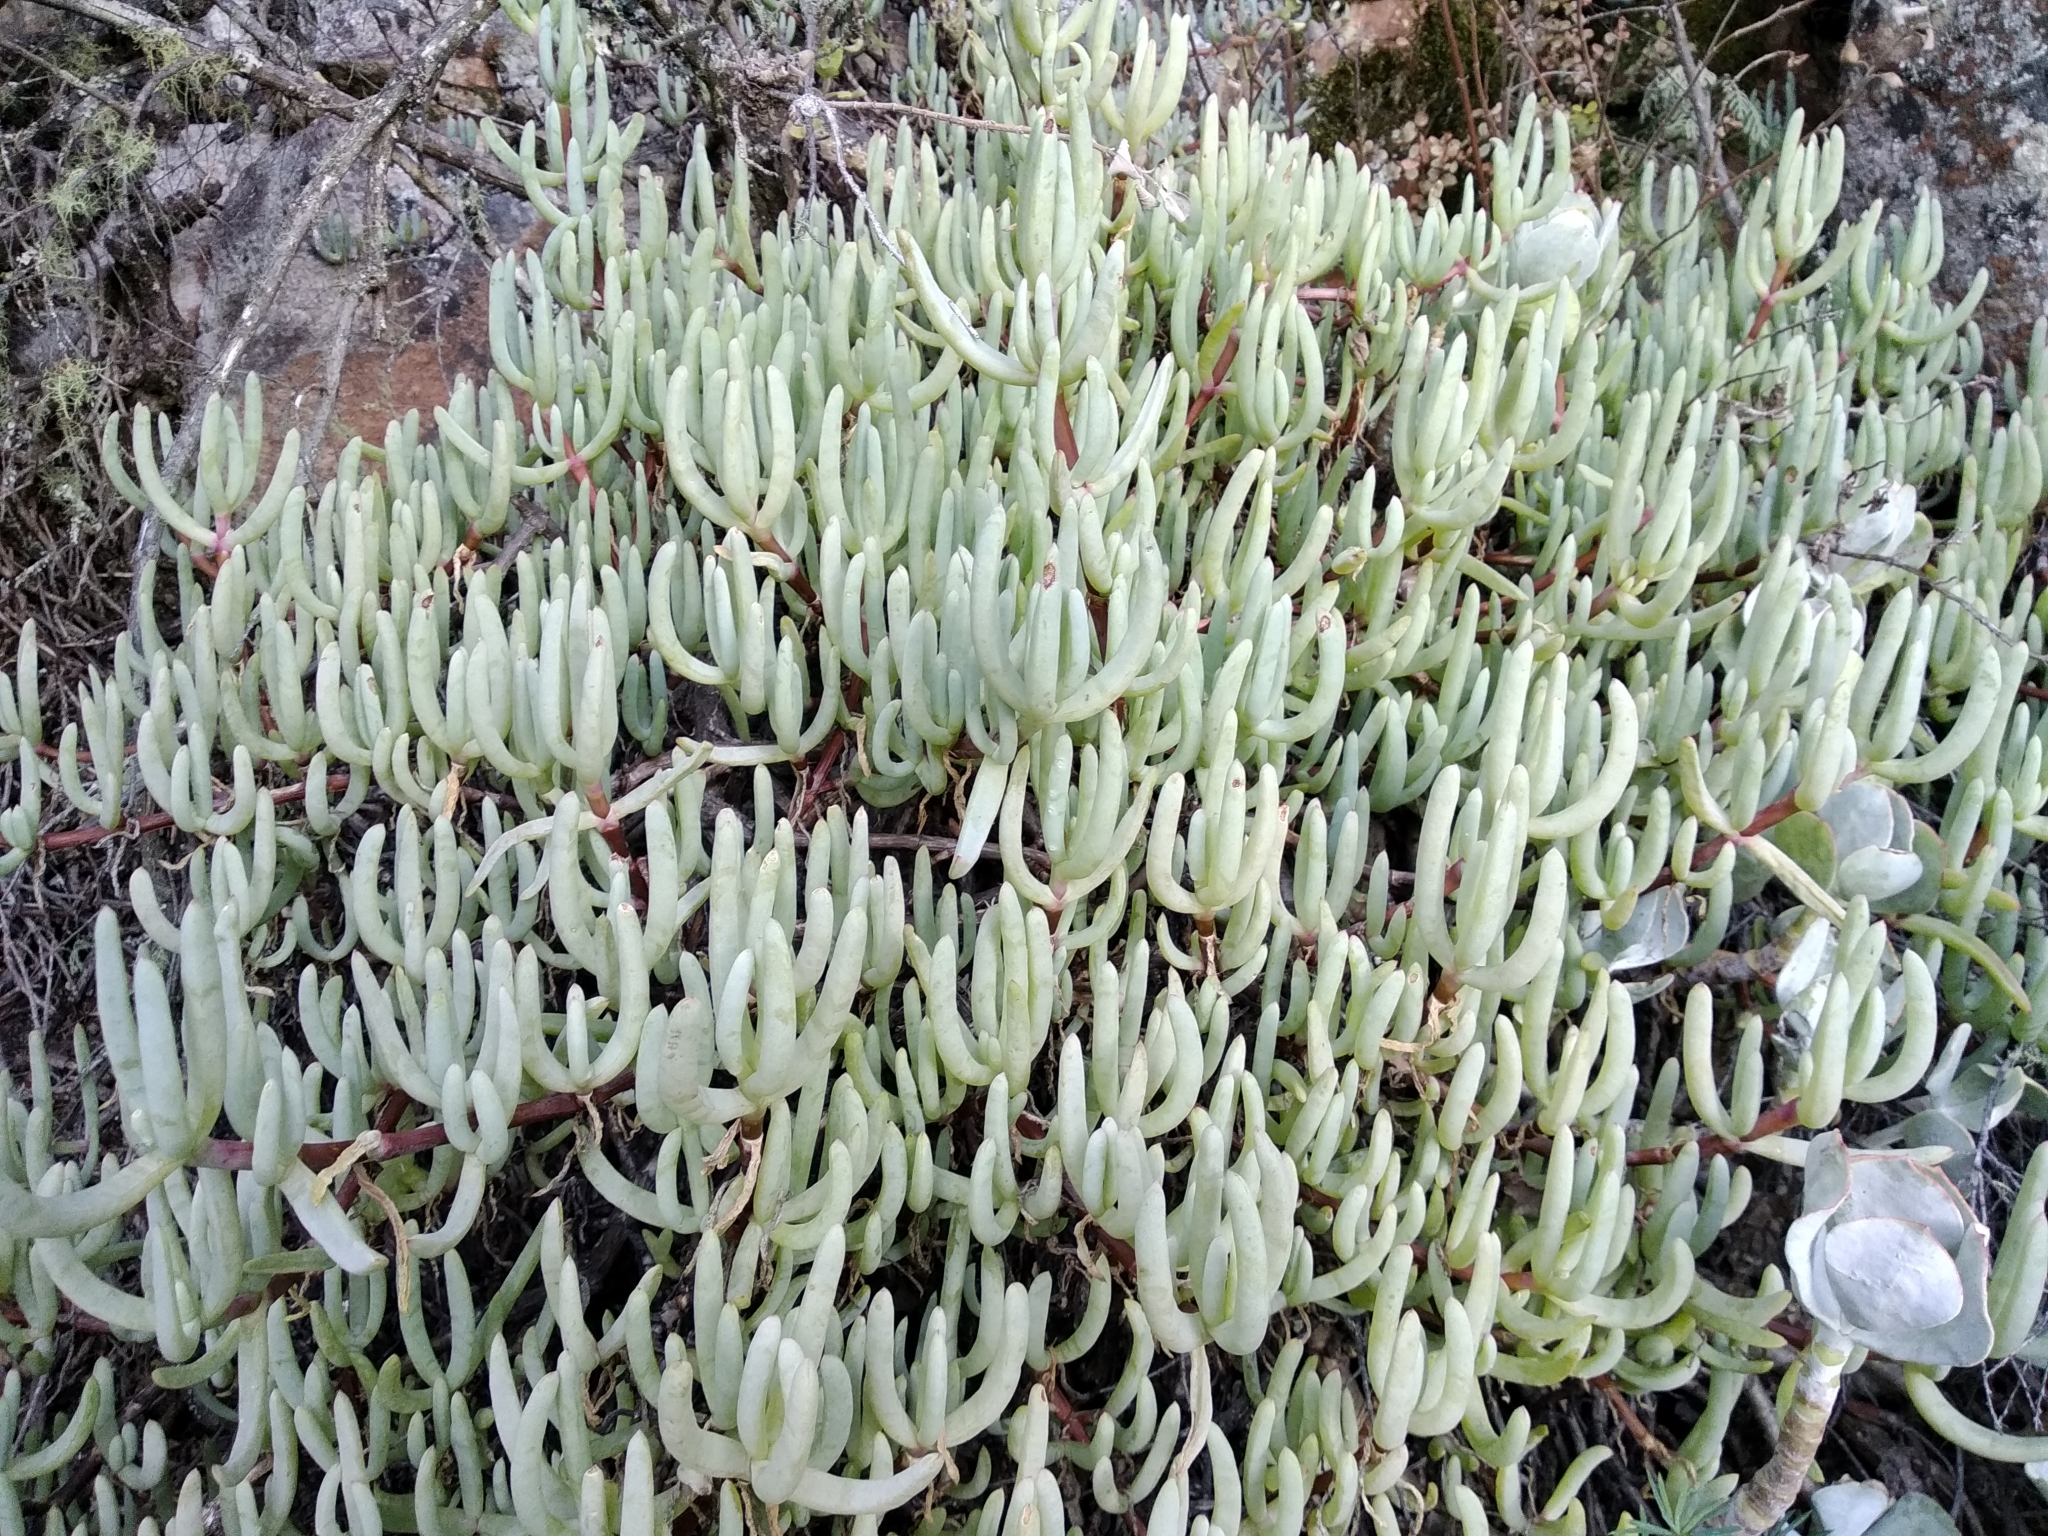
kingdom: Plantae
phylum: Tracheophyta
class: Magnoliopsida
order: Caryophyllales
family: Aizoaceae
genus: Scopelogena
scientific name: Scopelogena verruculata
